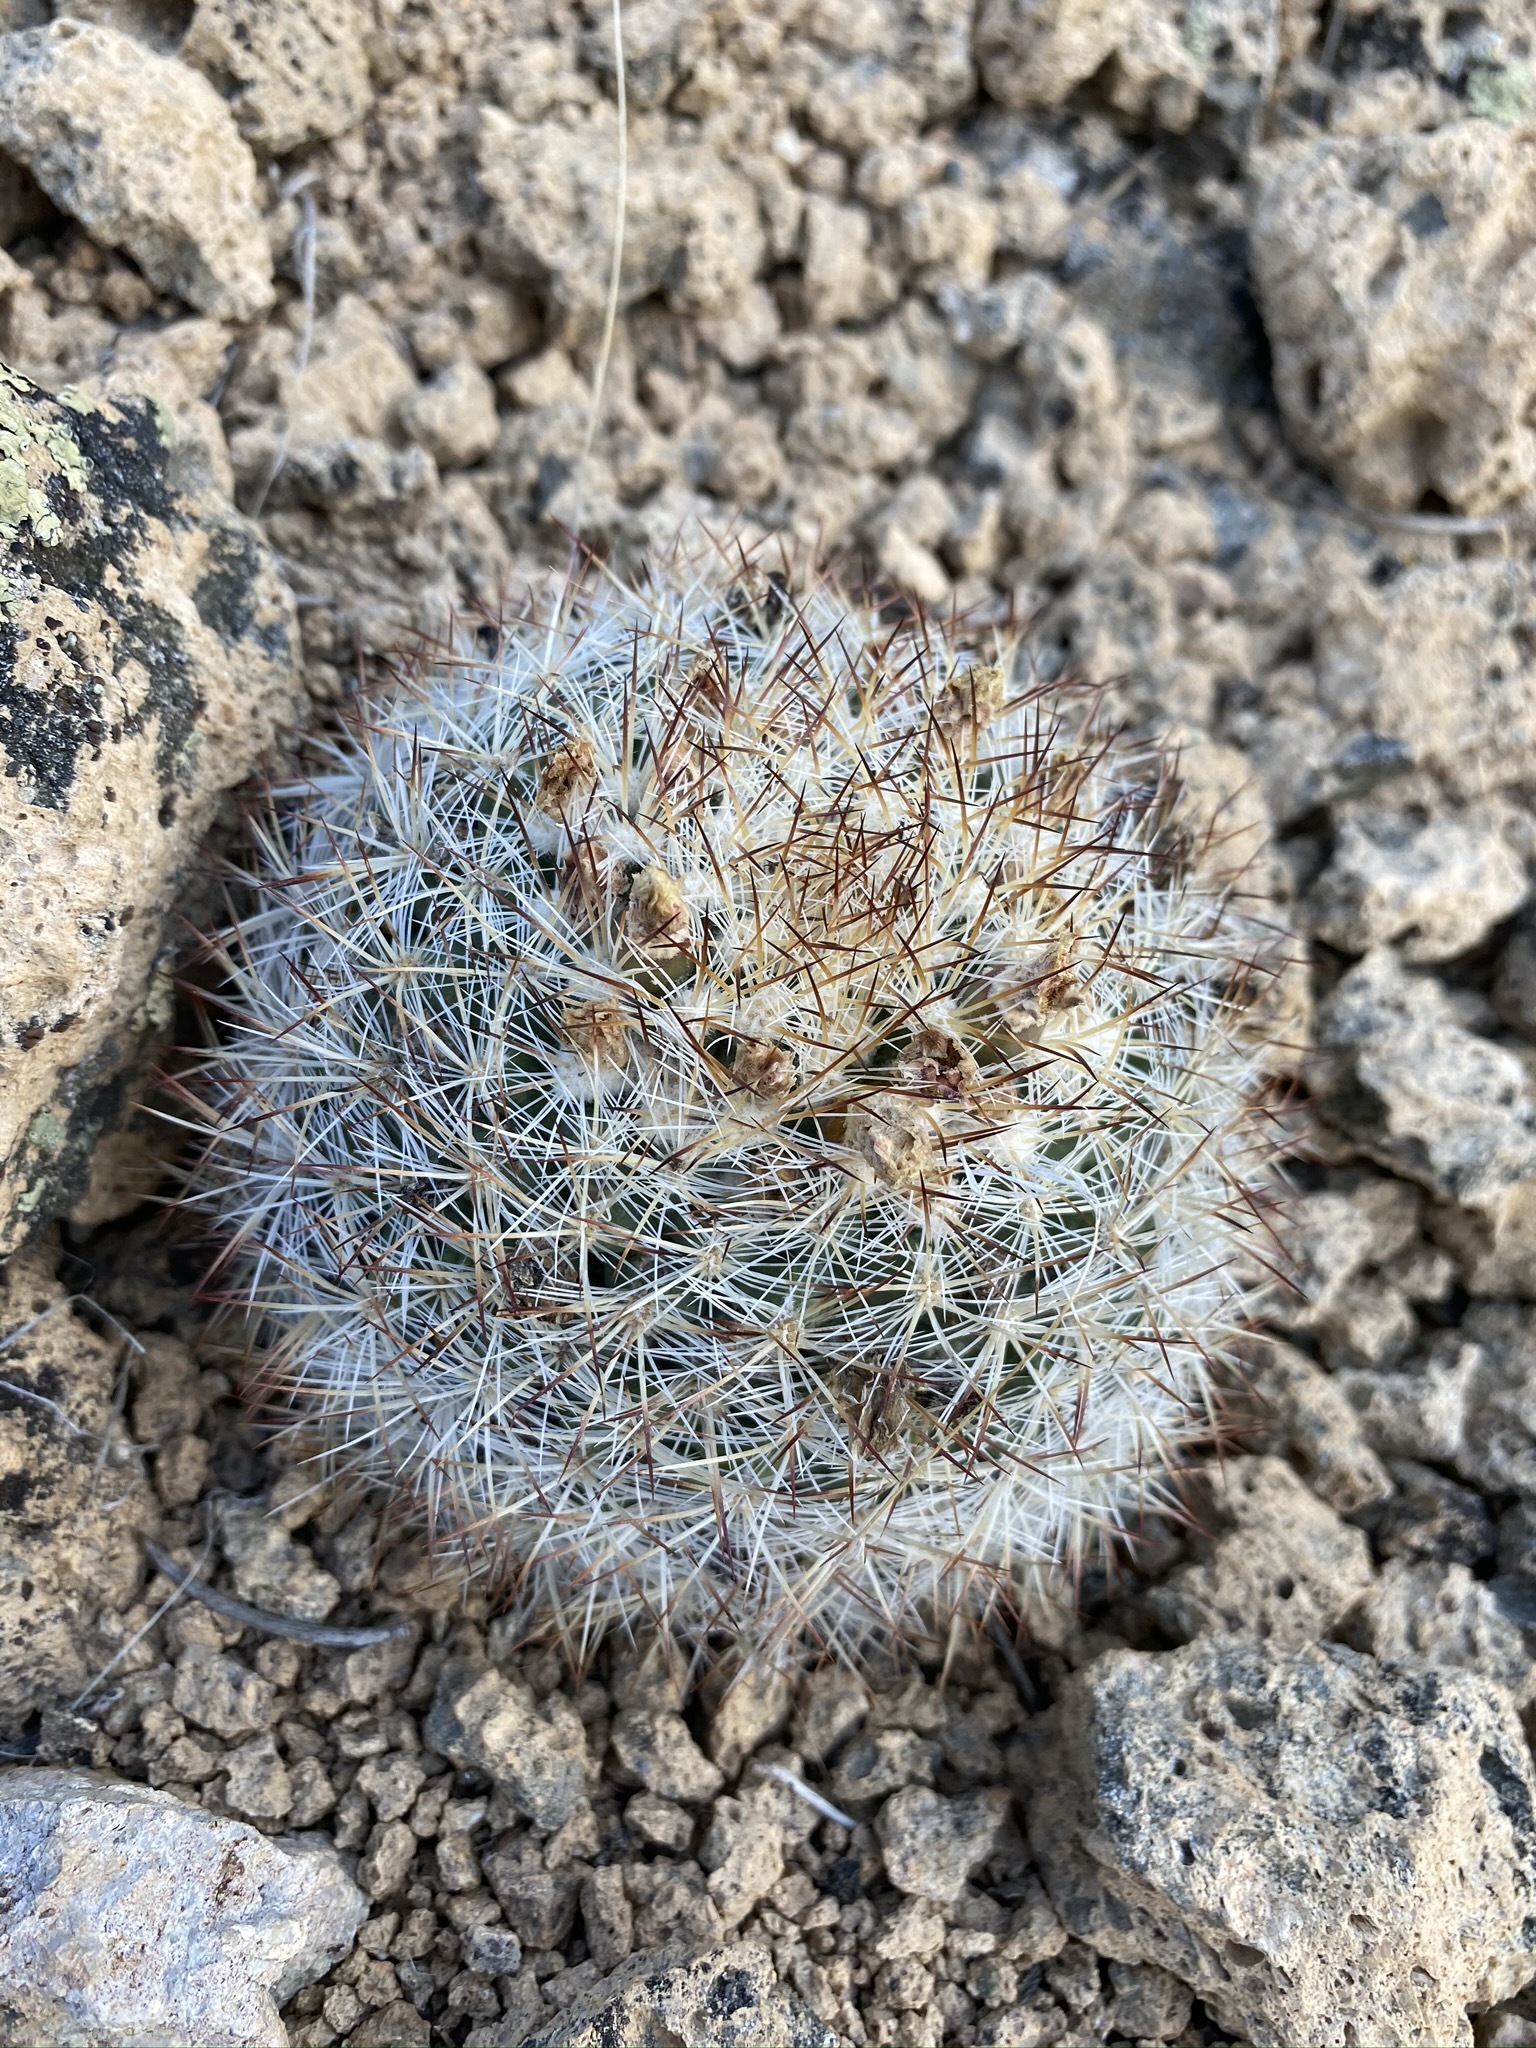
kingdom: Plantae
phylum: Tracheophyta
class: Magnoliopsida
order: Caryophyllales
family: Cactaceae
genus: Pediocactus
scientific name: Pediocactus simpsonii
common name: Simpson's hedgehog cactus
